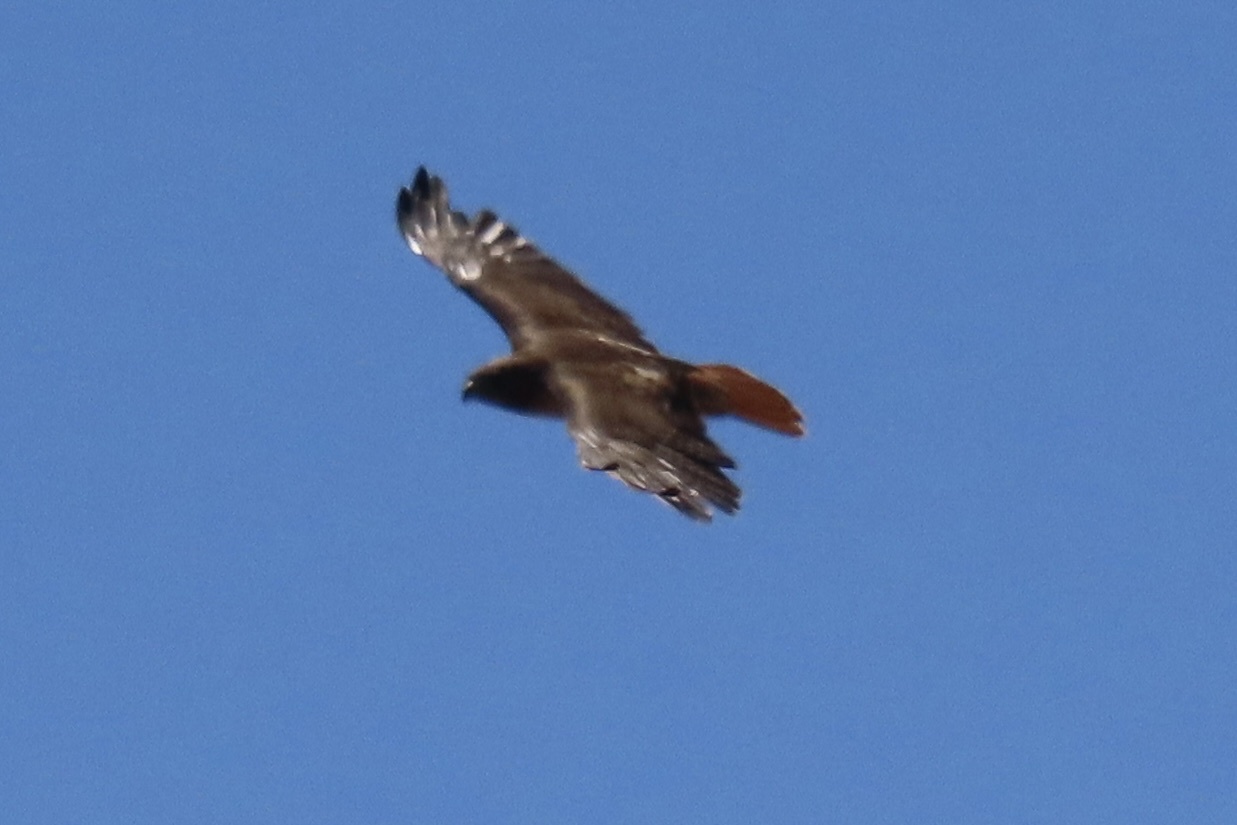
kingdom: Animalia
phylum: Chordata
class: Aves
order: Accipitriformes
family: Accipitridae
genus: Buteo
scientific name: Buteo jamaicensis
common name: Red-tailed hawk
